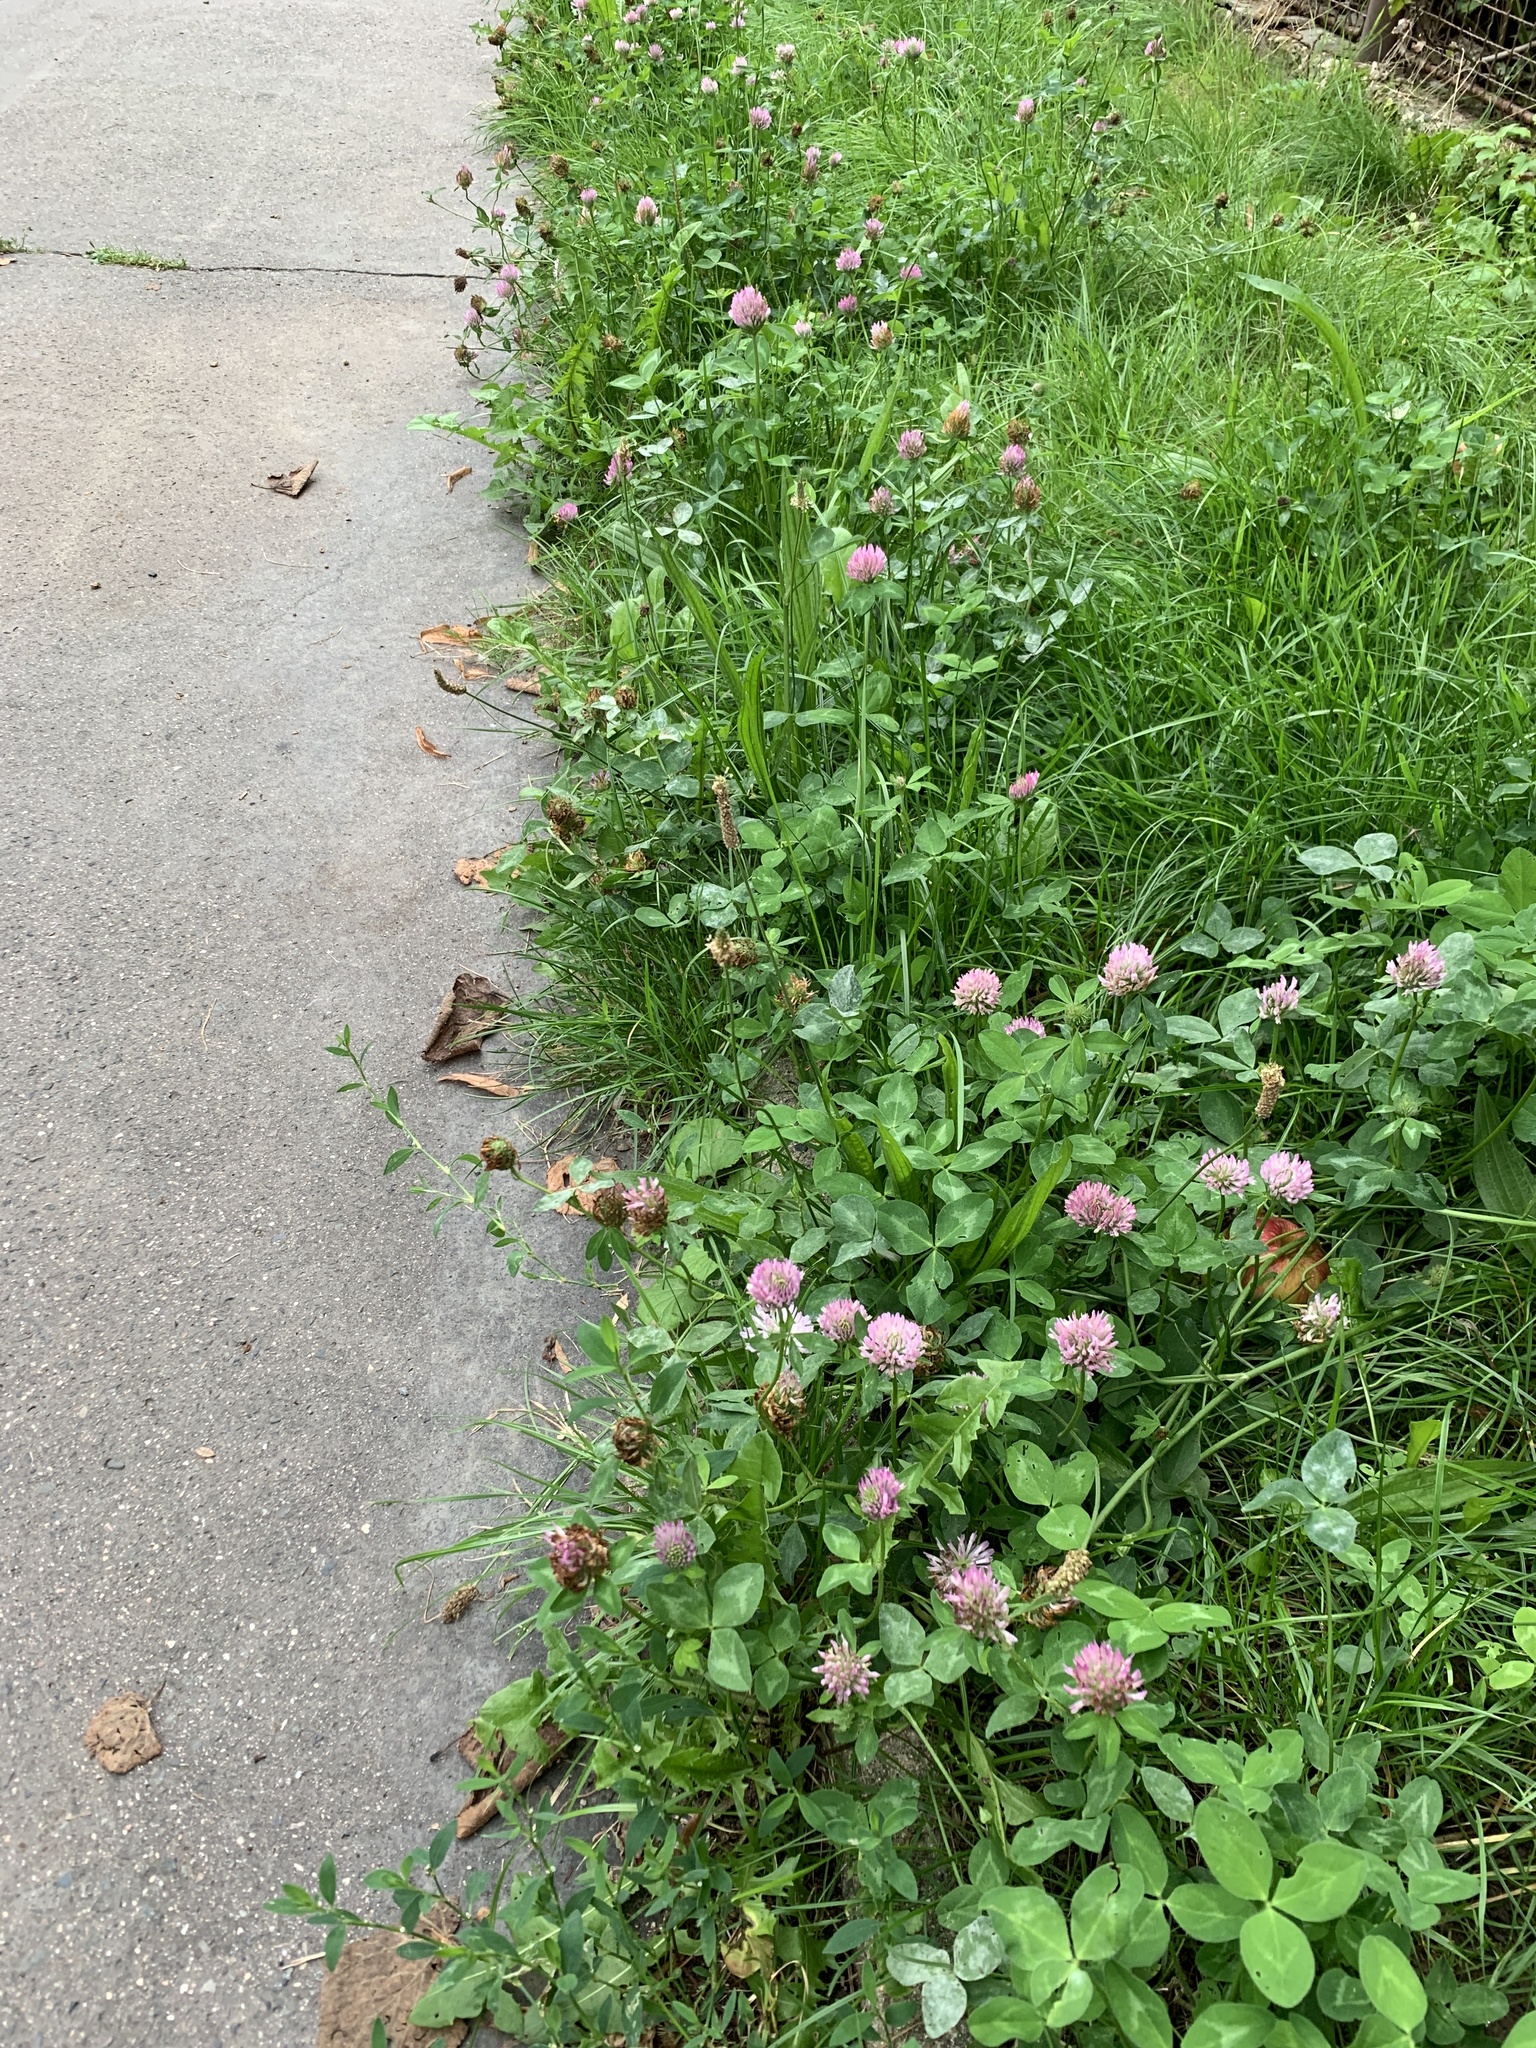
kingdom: Plantae
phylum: Tracheophyta
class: Magnoliopsida
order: Fabales
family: Fabaceae
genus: Trifolium
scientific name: Trifolium pratense
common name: Red clover
